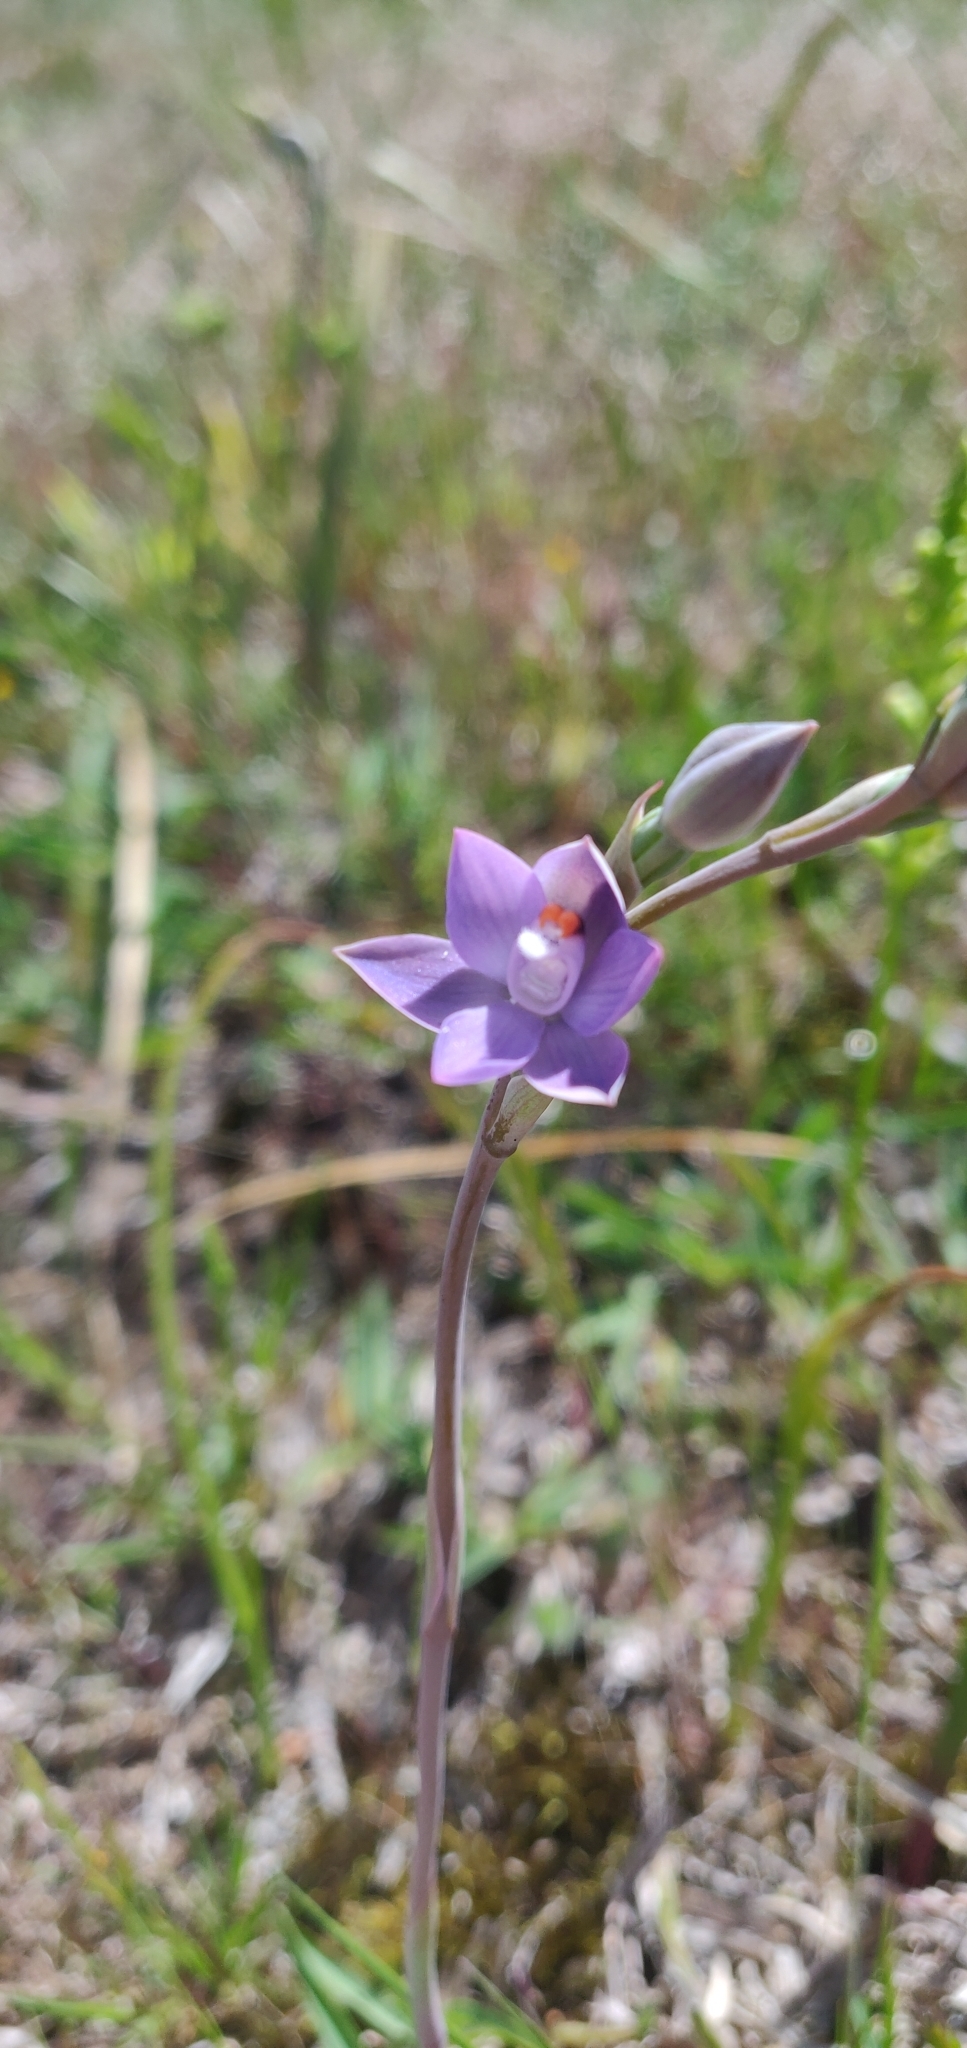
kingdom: Plantae
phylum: Tracheophyta
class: Liliopsida
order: Asparagales
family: Orchidaceae
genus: Thelymitra
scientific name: Thelymitra pauciflora
